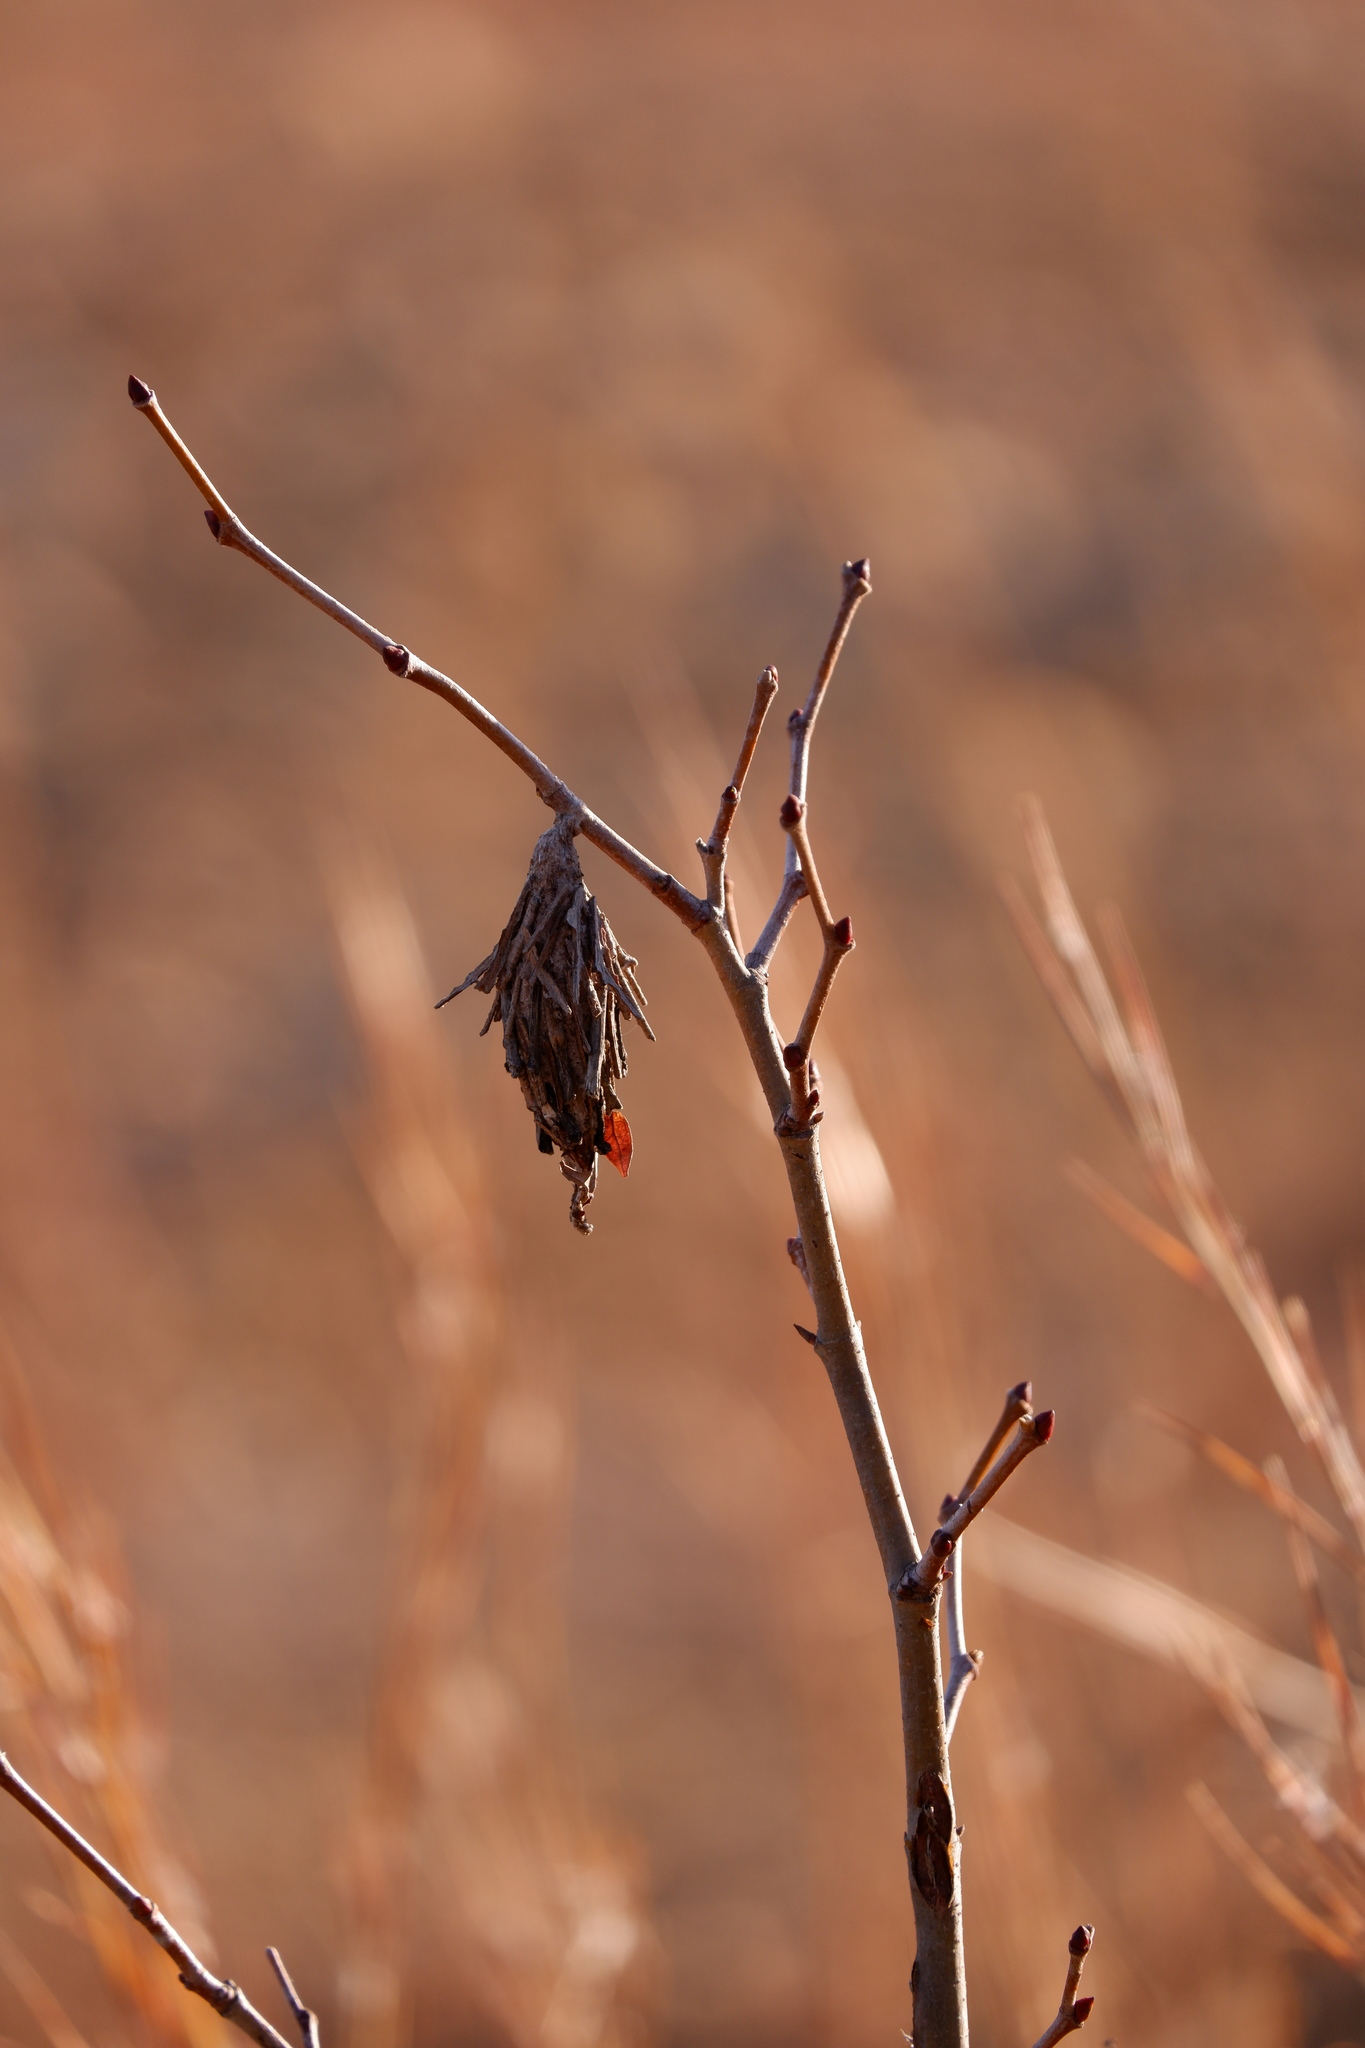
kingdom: Animalia
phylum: Arthropoda
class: Insecta
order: Lepidoptera
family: Psychidae
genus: Thyridopteryx
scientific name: Thyridopteryx ephemeraeformis
